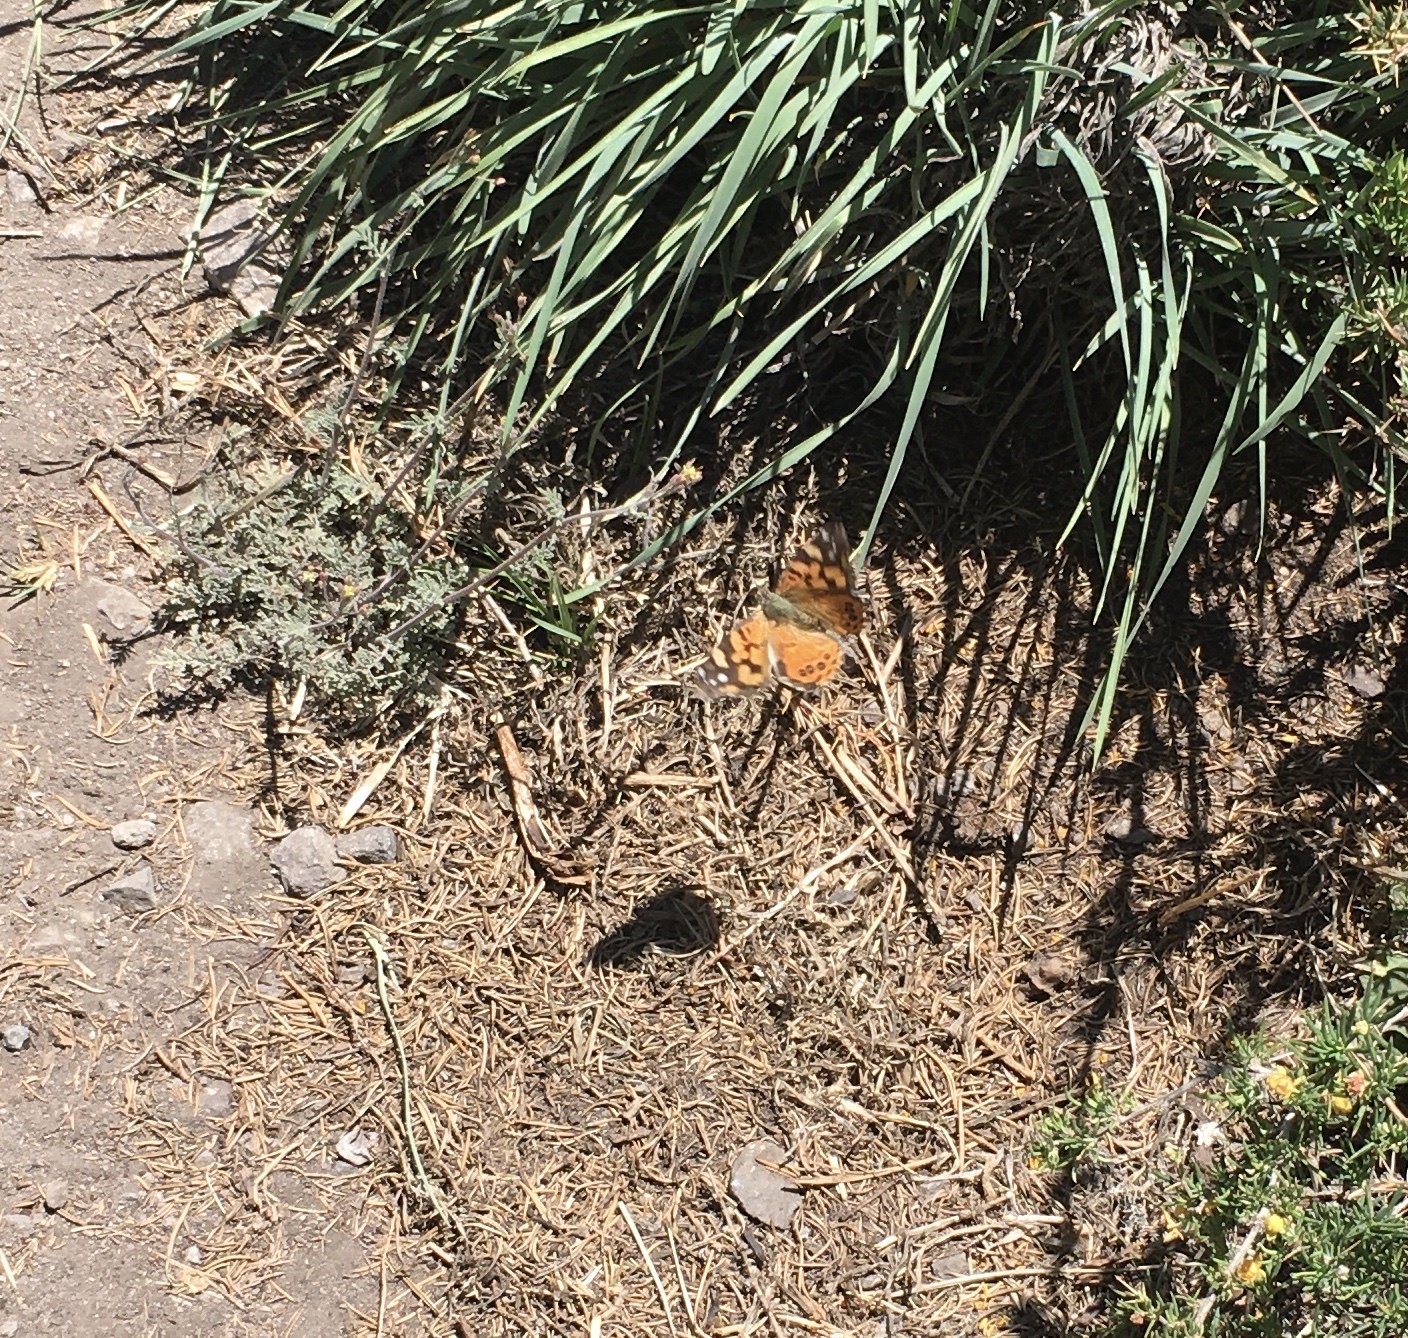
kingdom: Animalia
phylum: Arthropoda
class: Insecta
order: Lepidoptera
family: Nymphalidae
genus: Vanessa
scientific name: Vanessa carye
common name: Subtropical lady
